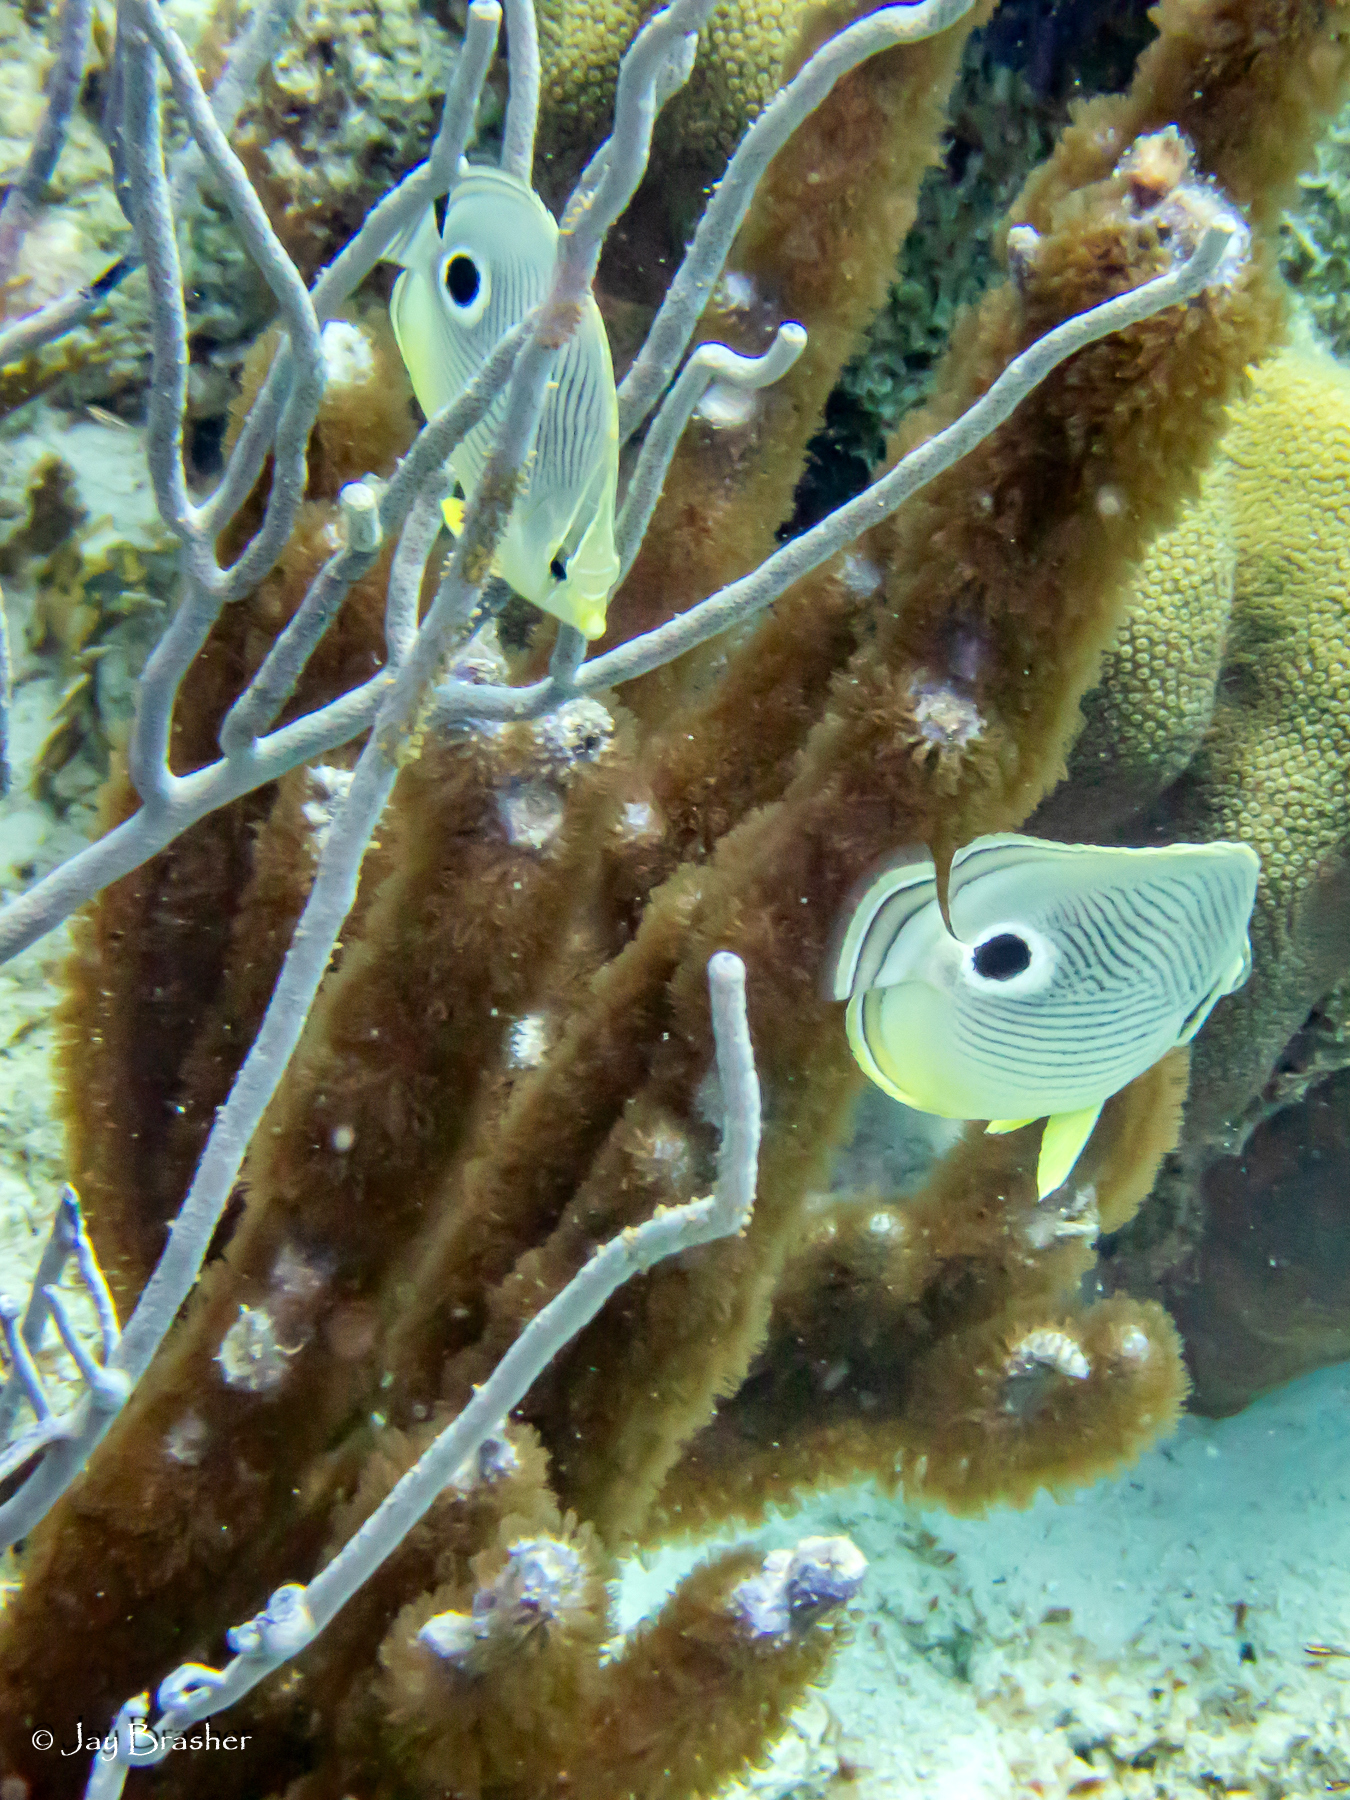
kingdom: Animalia
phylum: Chordata
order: Perciformes
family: Chaetodontidae
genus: Chaetodon
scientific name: Chaetodon capistratus
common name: Kete
